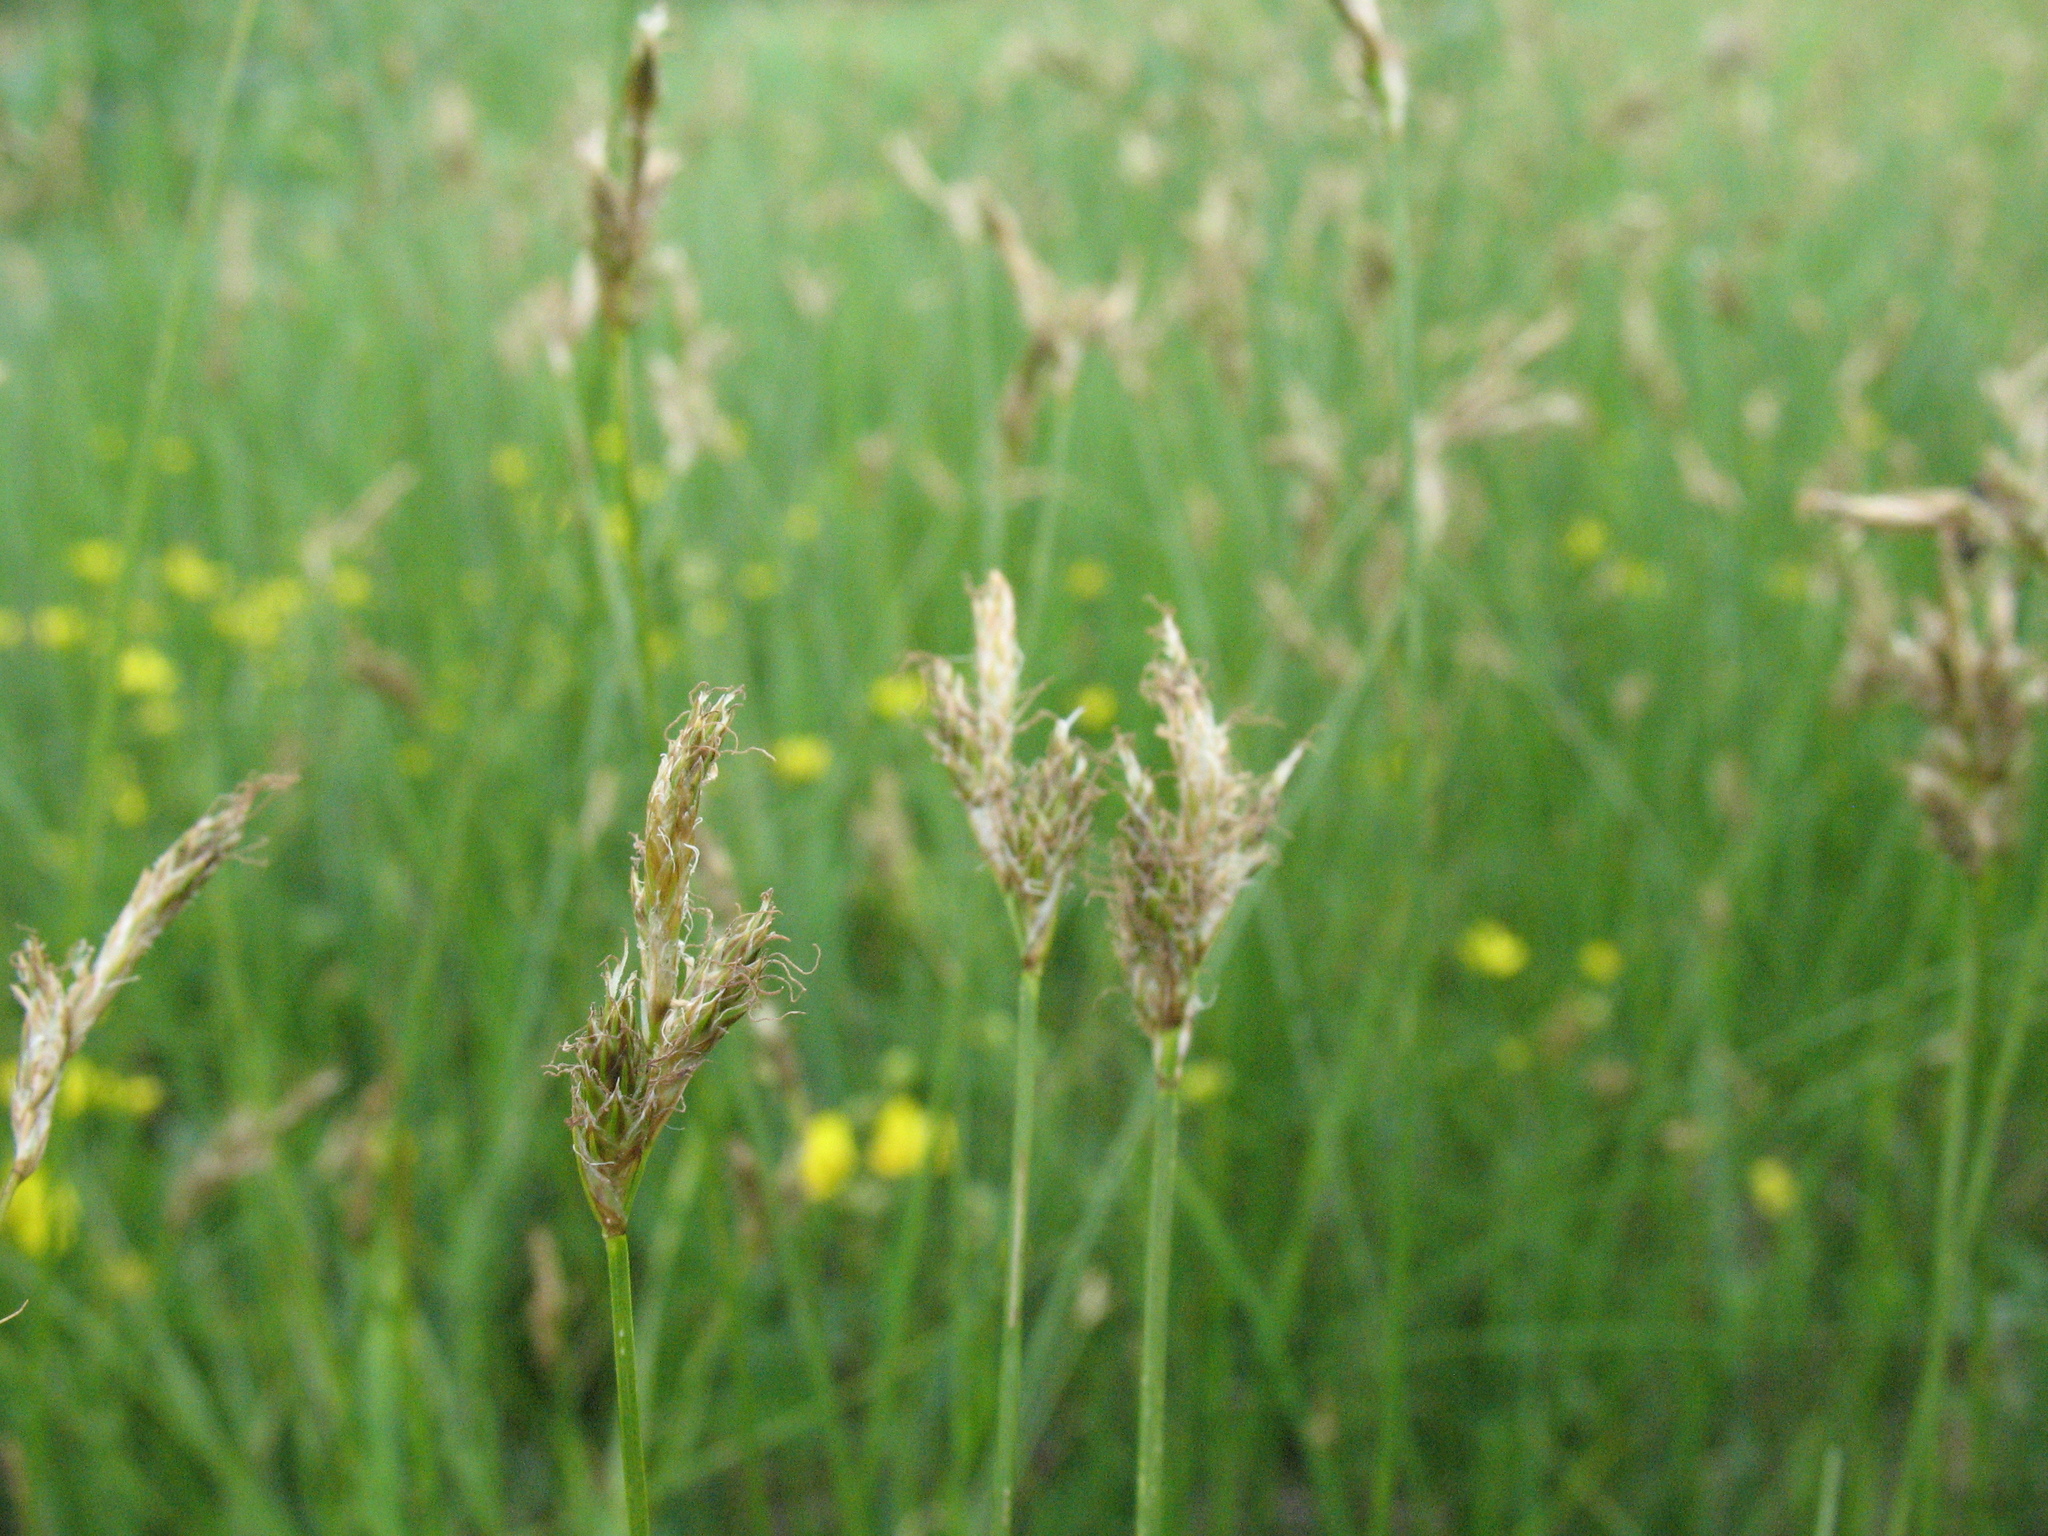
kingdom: Plantae
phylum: Tracheophyta
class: Liliopsida
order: Poales
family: Cyperaceae
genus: Carex
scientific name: Carex praecox
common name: Early sedge
